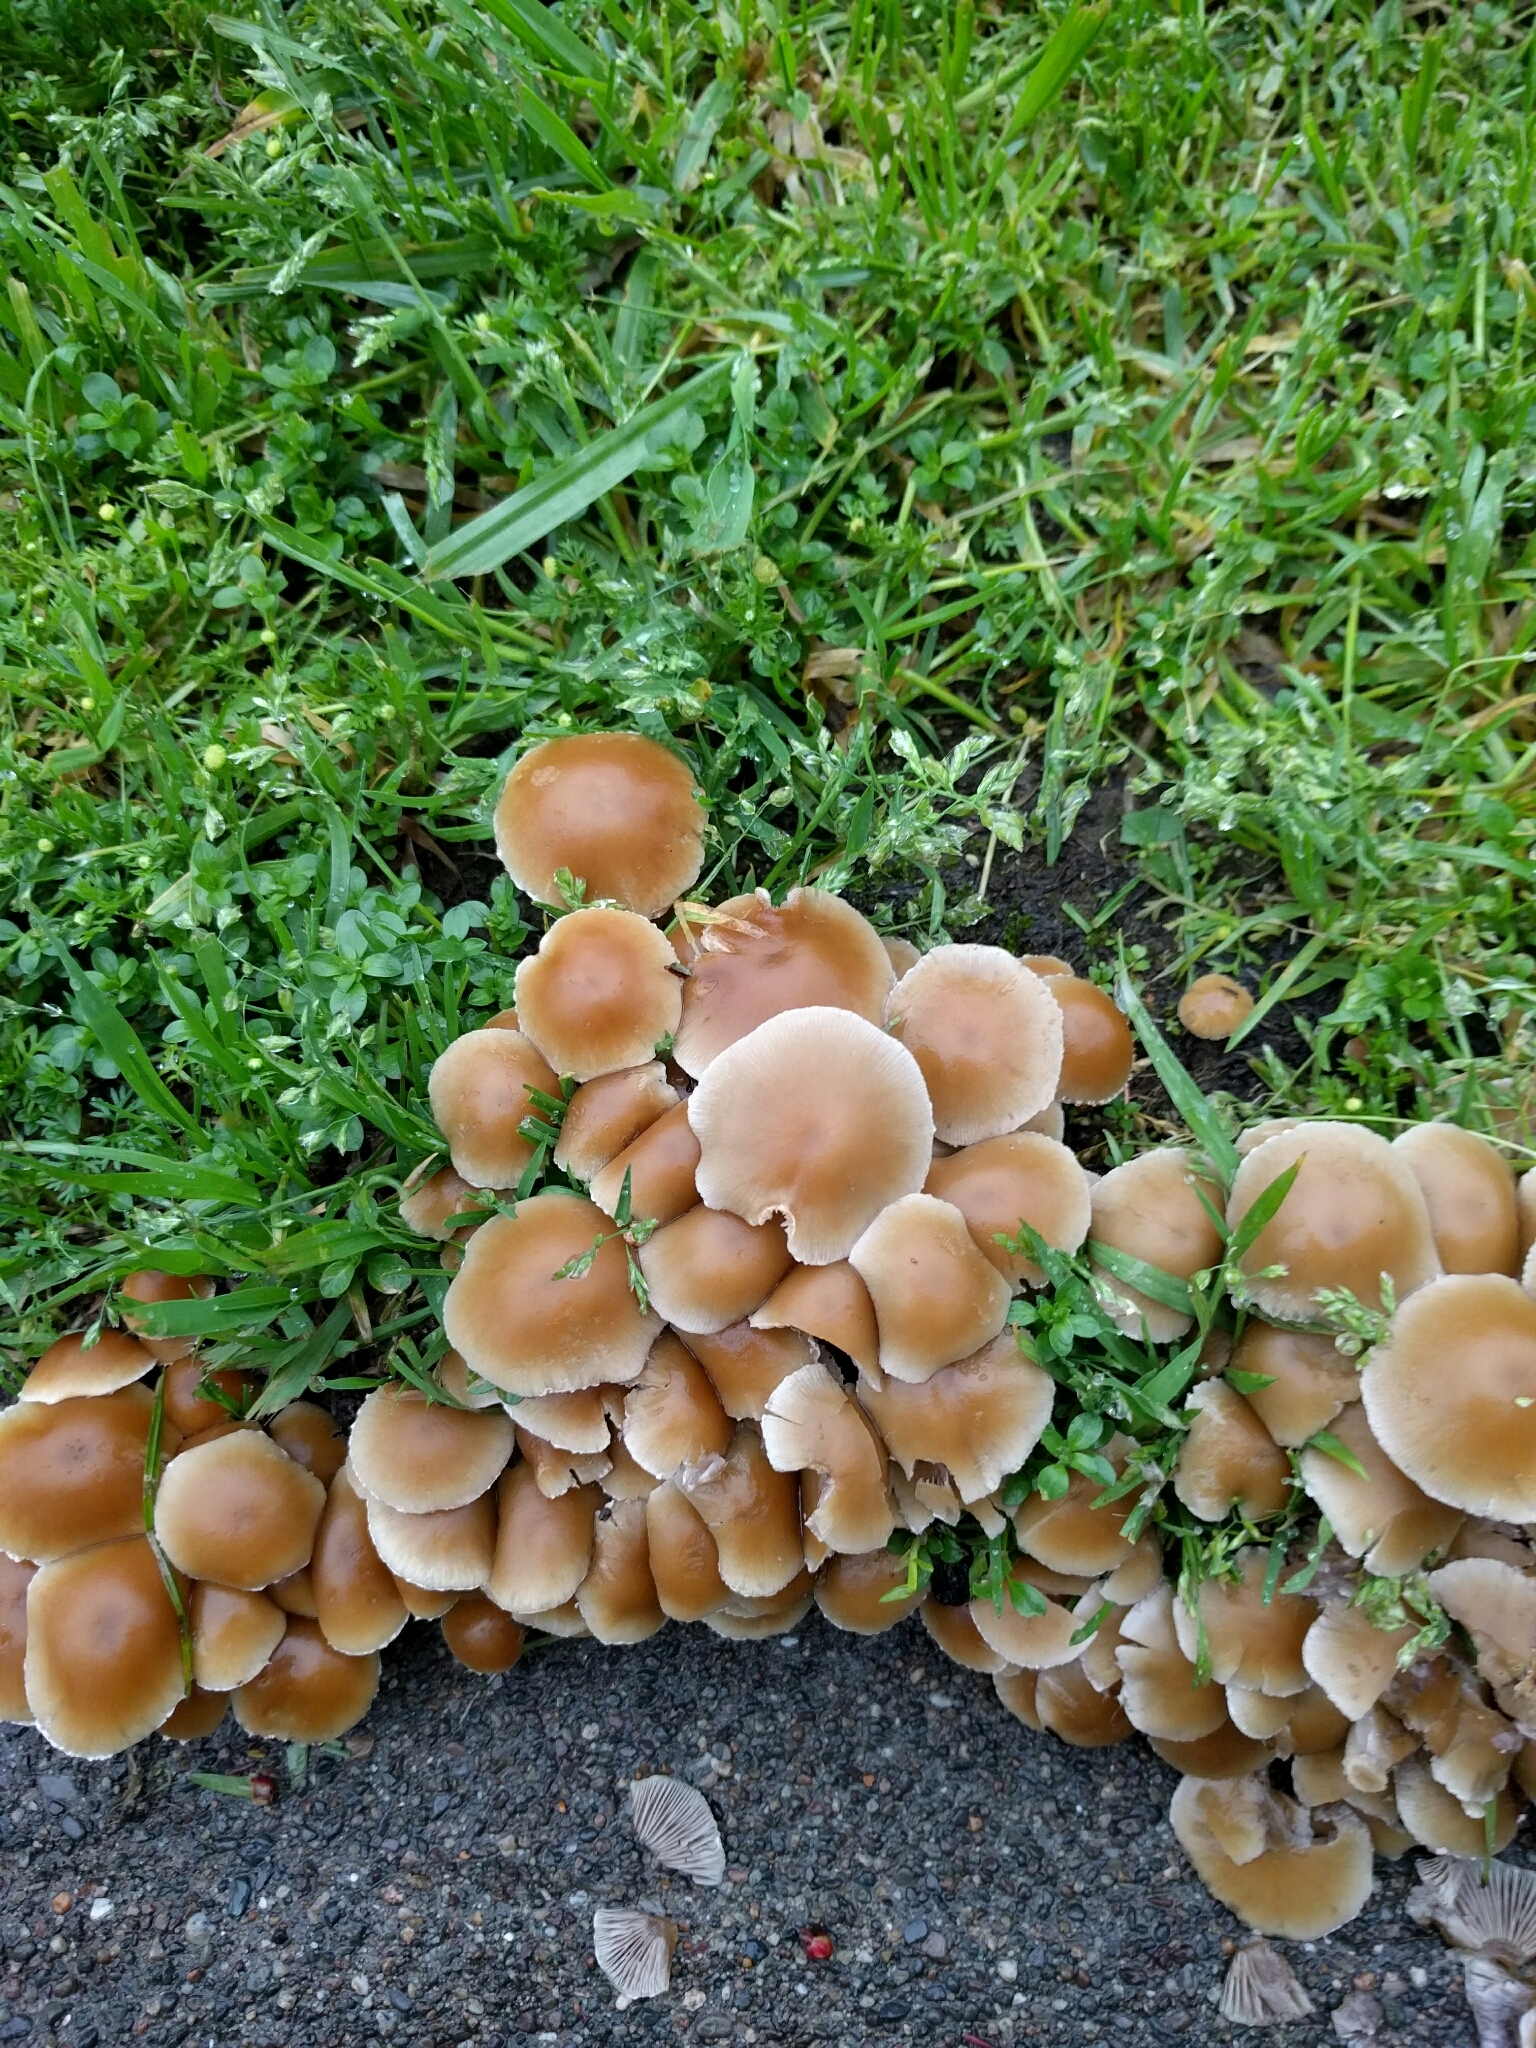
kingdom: Fungi
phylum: Basidiomycota
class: Agaricomycetes
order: Agaricales
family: Psathyrellaceae
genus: Candolleomyces
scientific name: Candolleomyces candolleanus
